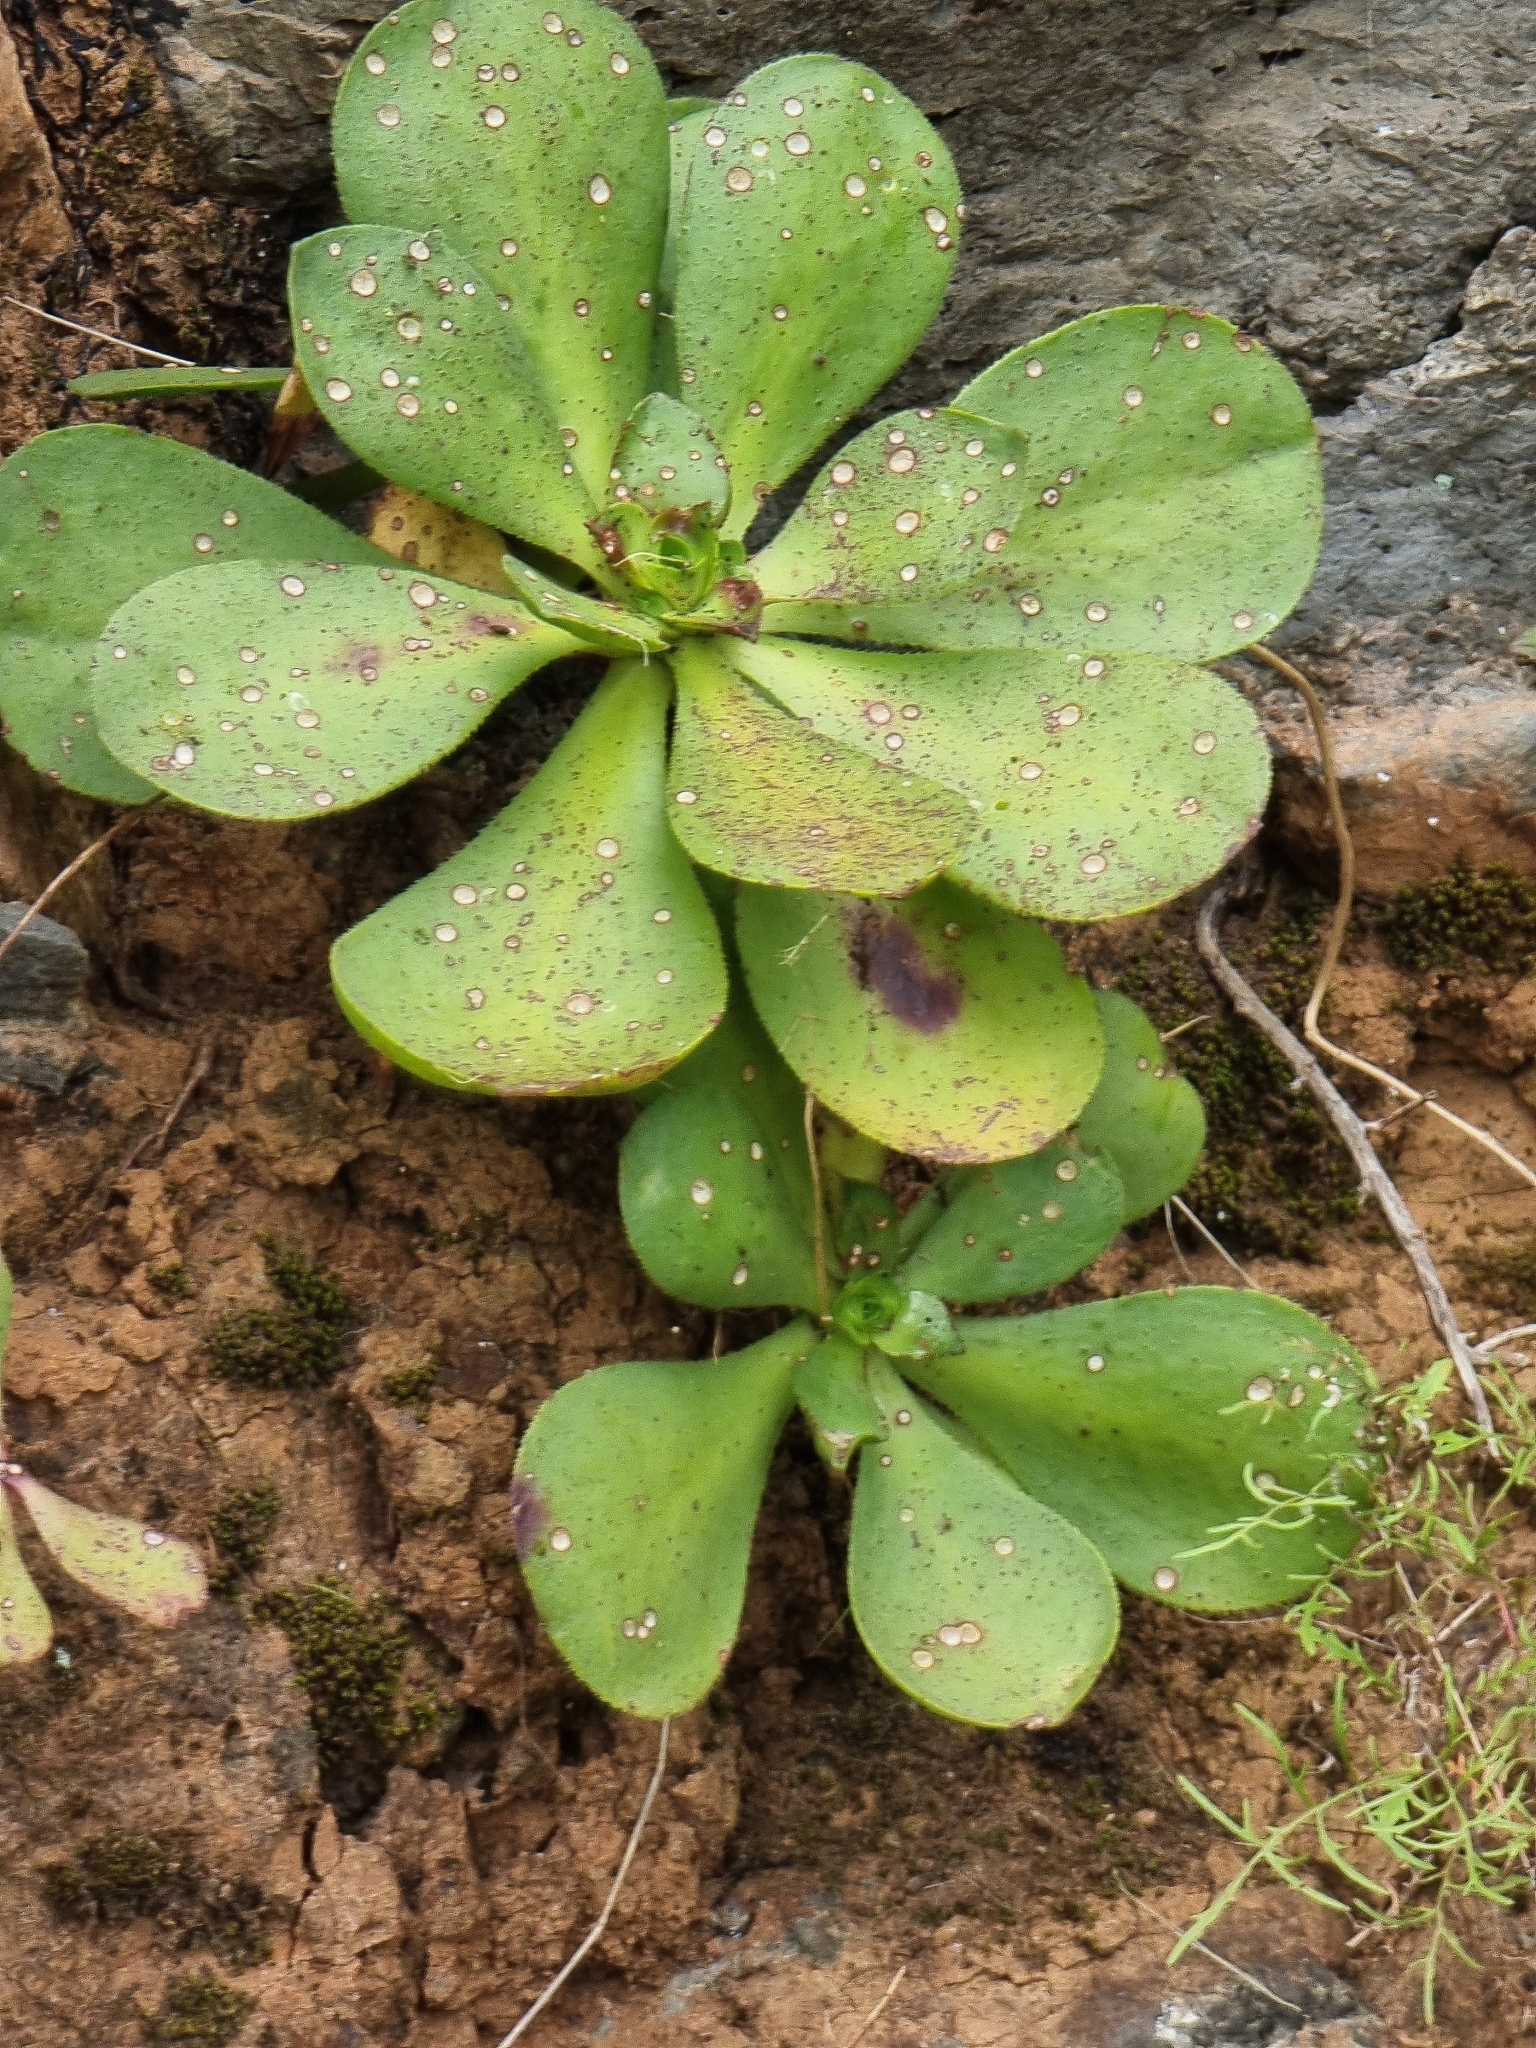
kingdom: Plantae
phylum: Tracheophyta
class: Magnoliopsida
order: Saxifragales
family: Crassulaceae
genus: Aeonium
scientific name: Aeonium glutinosum
